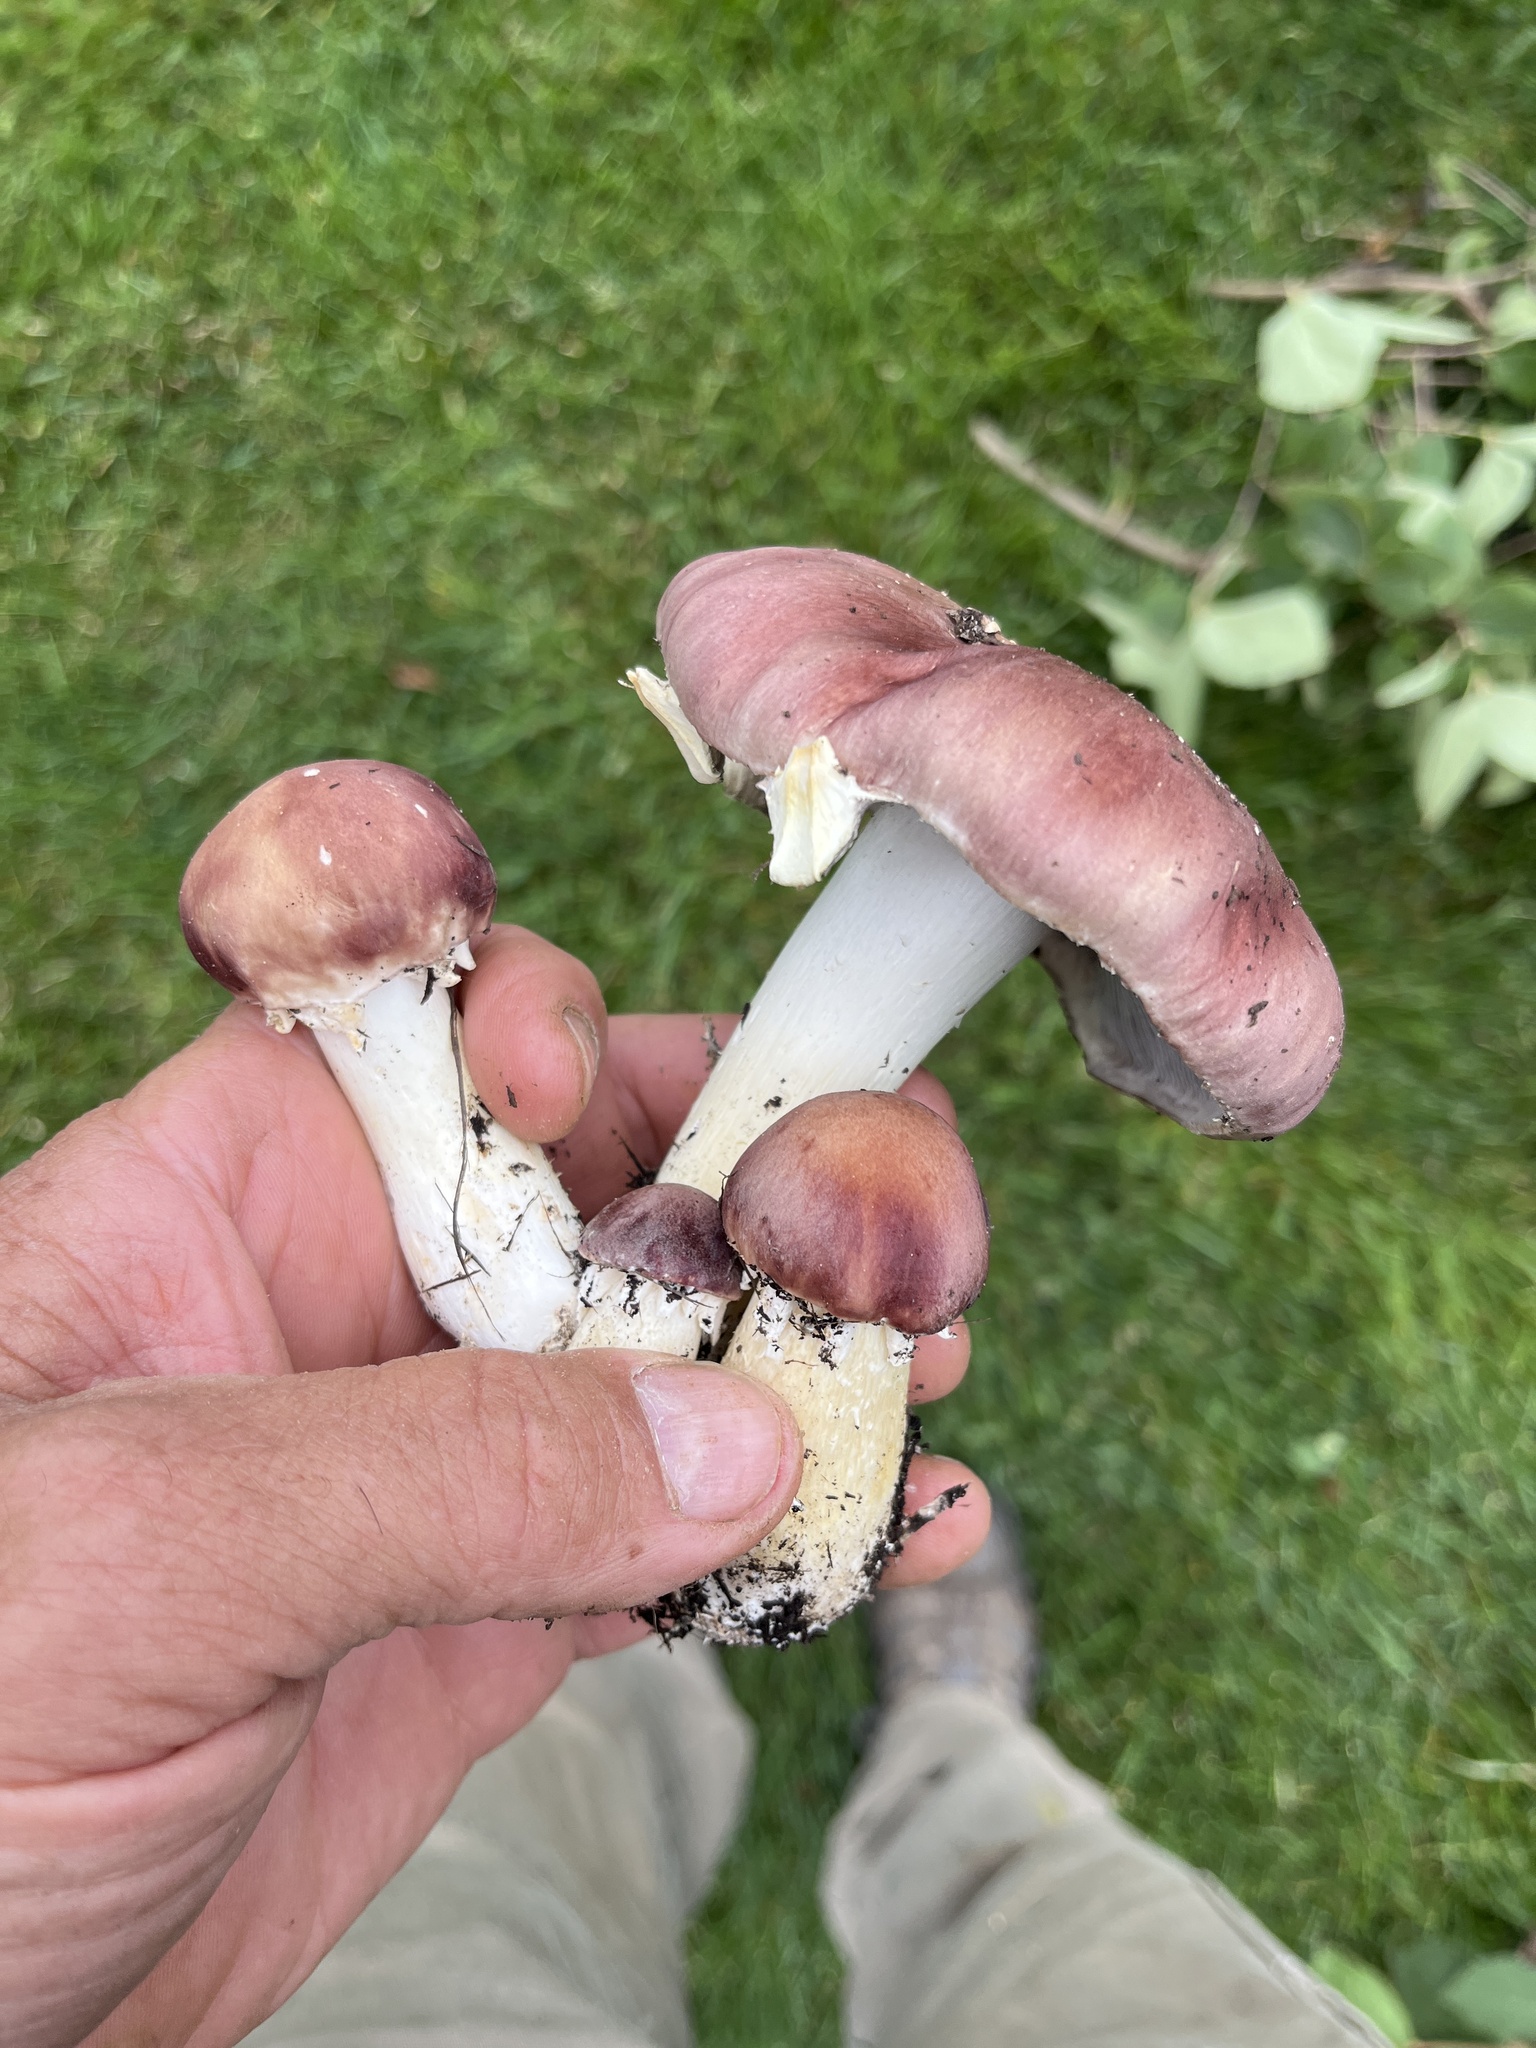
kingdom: Fungi
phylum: Basidiomycota
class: Agaricomycetes
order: Agaricales
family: Strophariaceae
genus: Stropharia
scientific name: Stropharia rugosoannulata
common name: Wine roundhead
